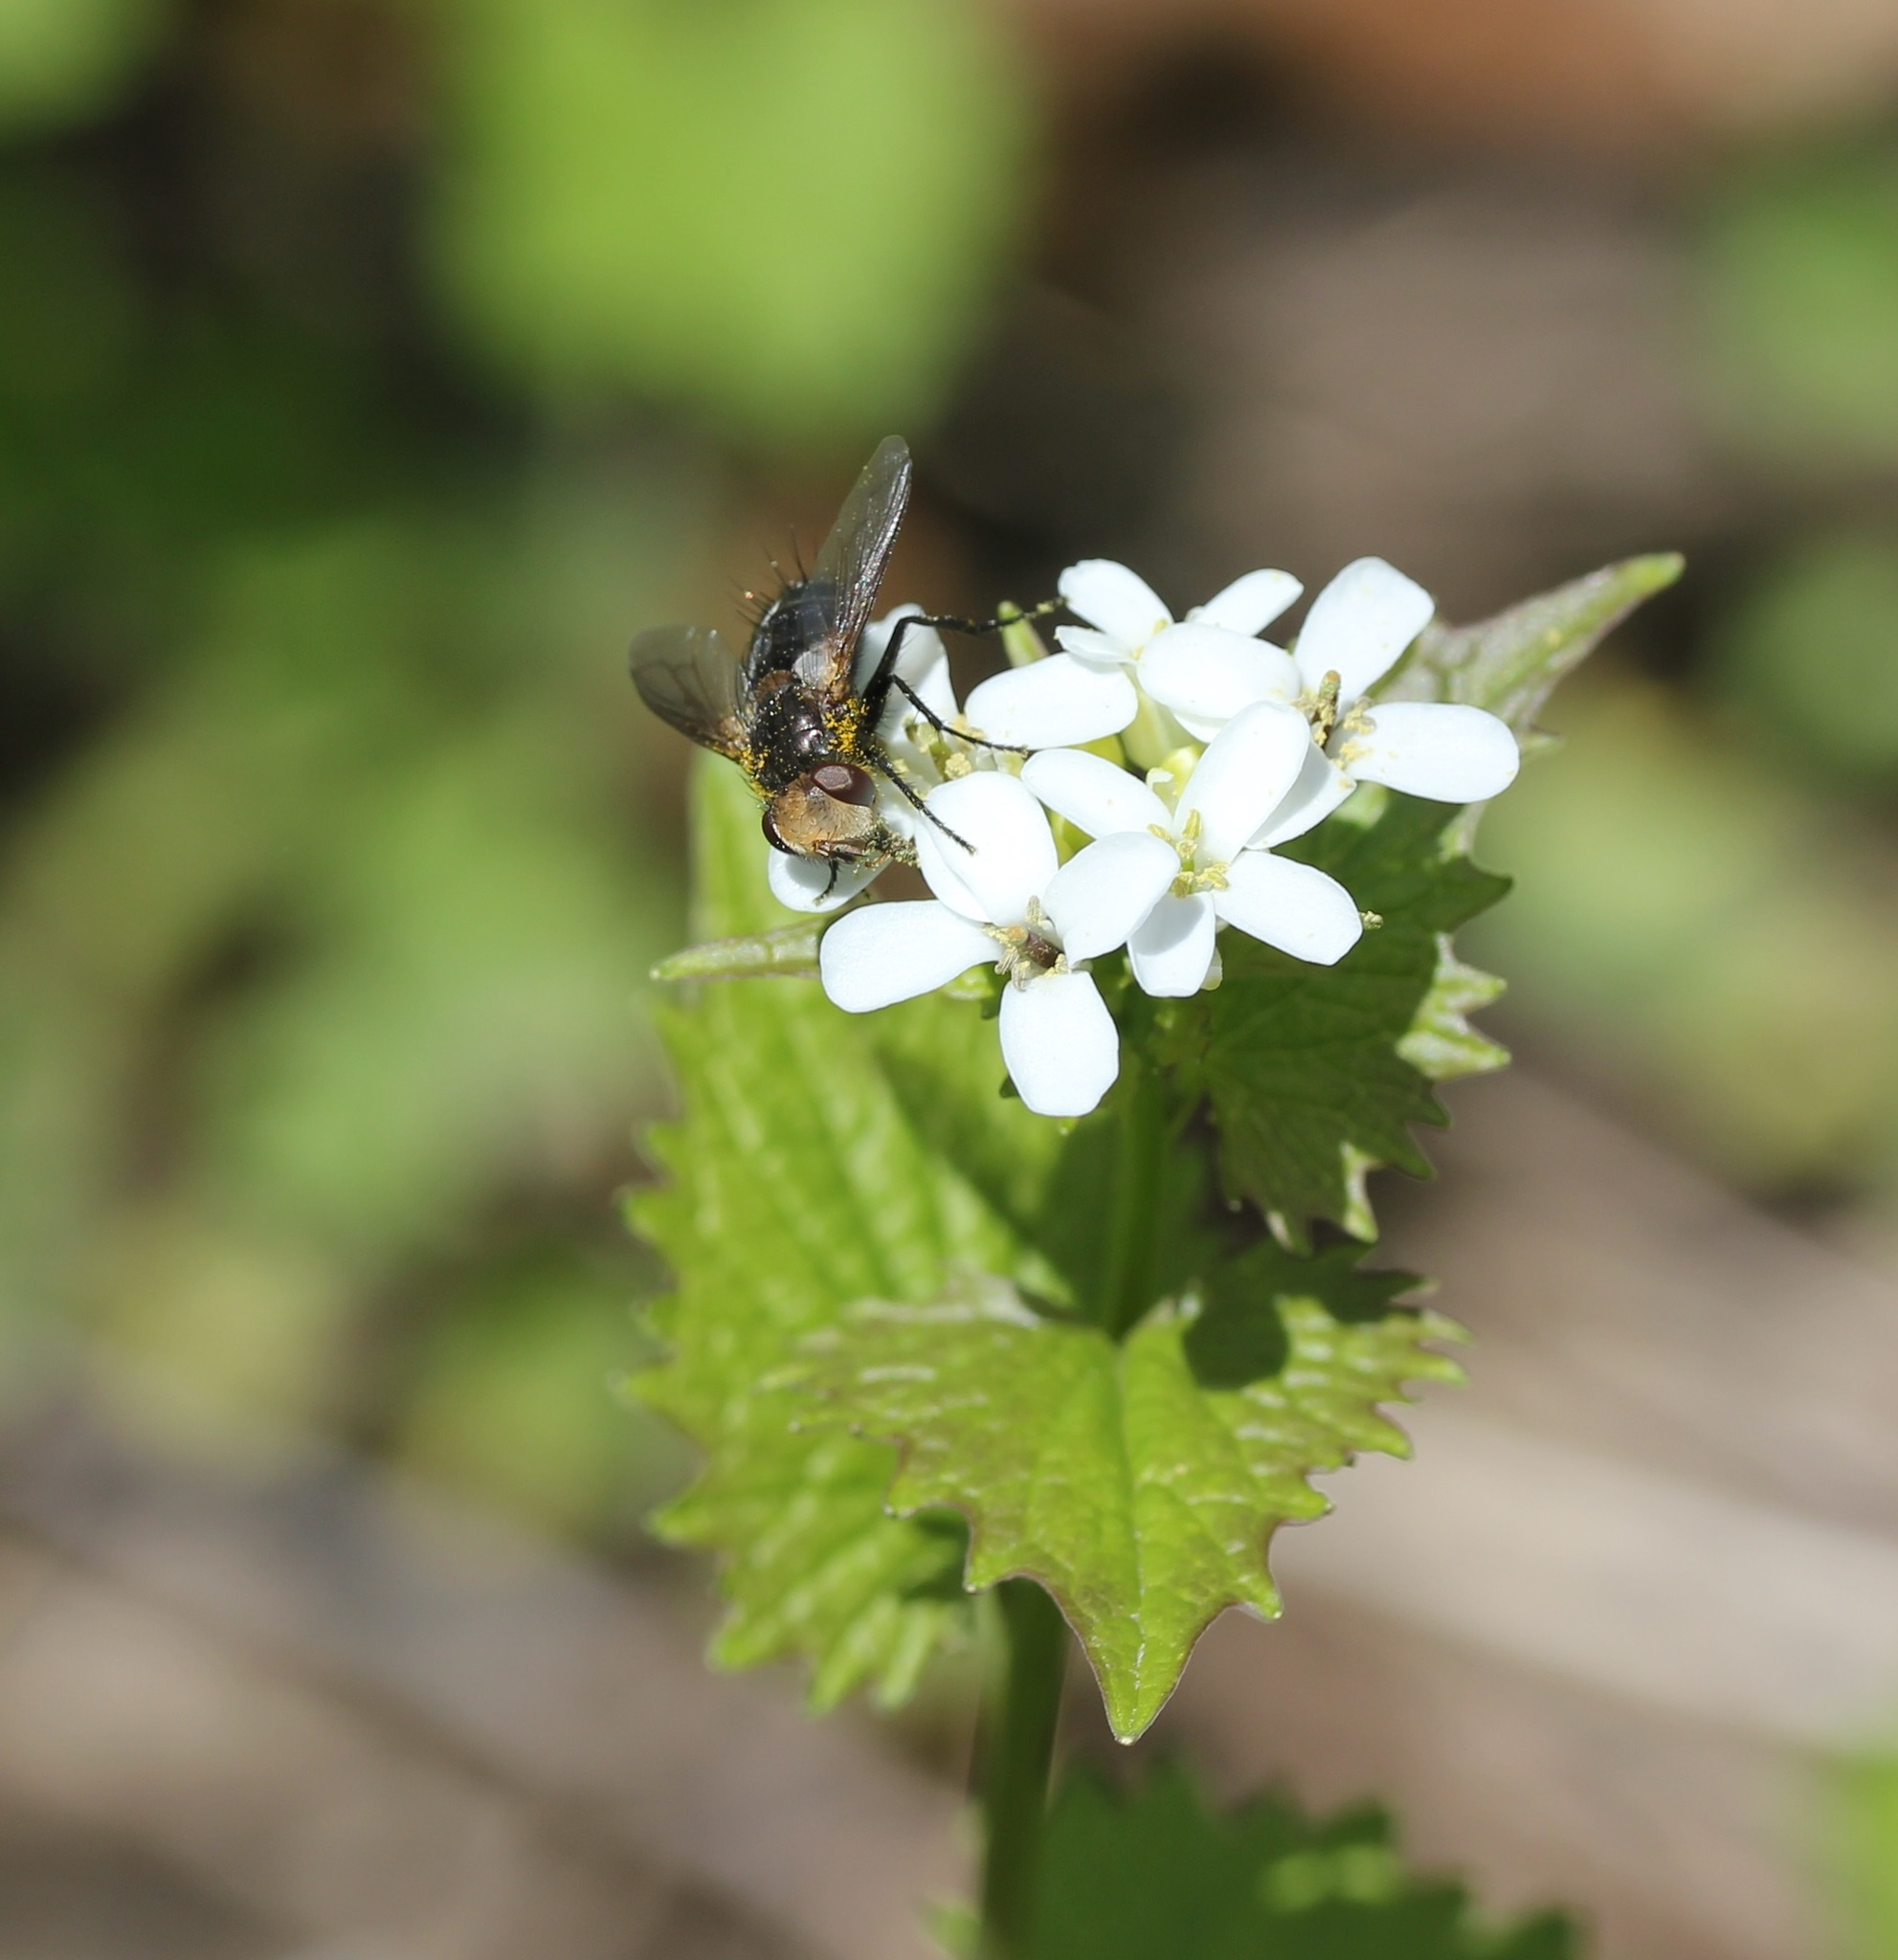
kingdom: Plantae
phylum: Tracheophyta
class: Magnoliopsida
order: Brassicales
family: Brassicaceae
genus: Alliaria
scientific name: Alliaria petiolata
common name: Garlic mustard
